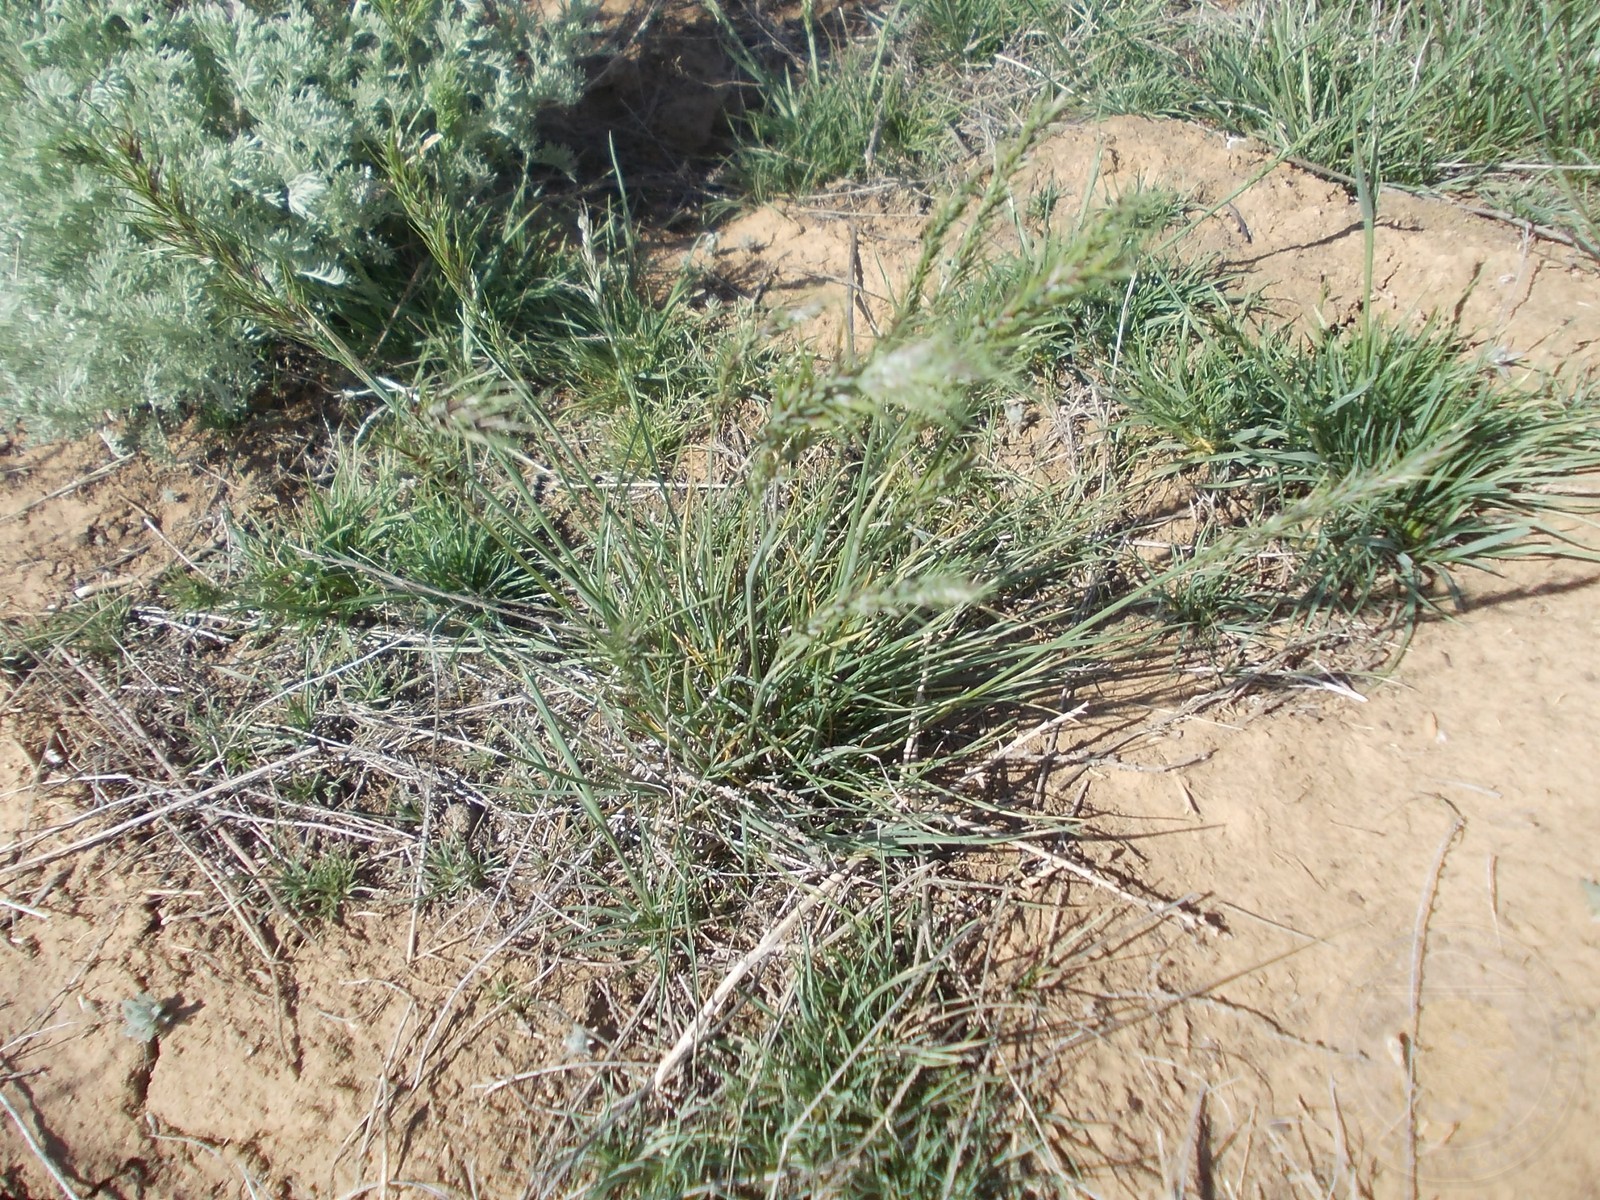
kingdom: Plantae
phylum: Tracheophyta
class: Liliopsida
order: Poales
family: Poaceae
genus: Poa
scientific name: Poa bulbosa
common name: Bulbous bluegrass
